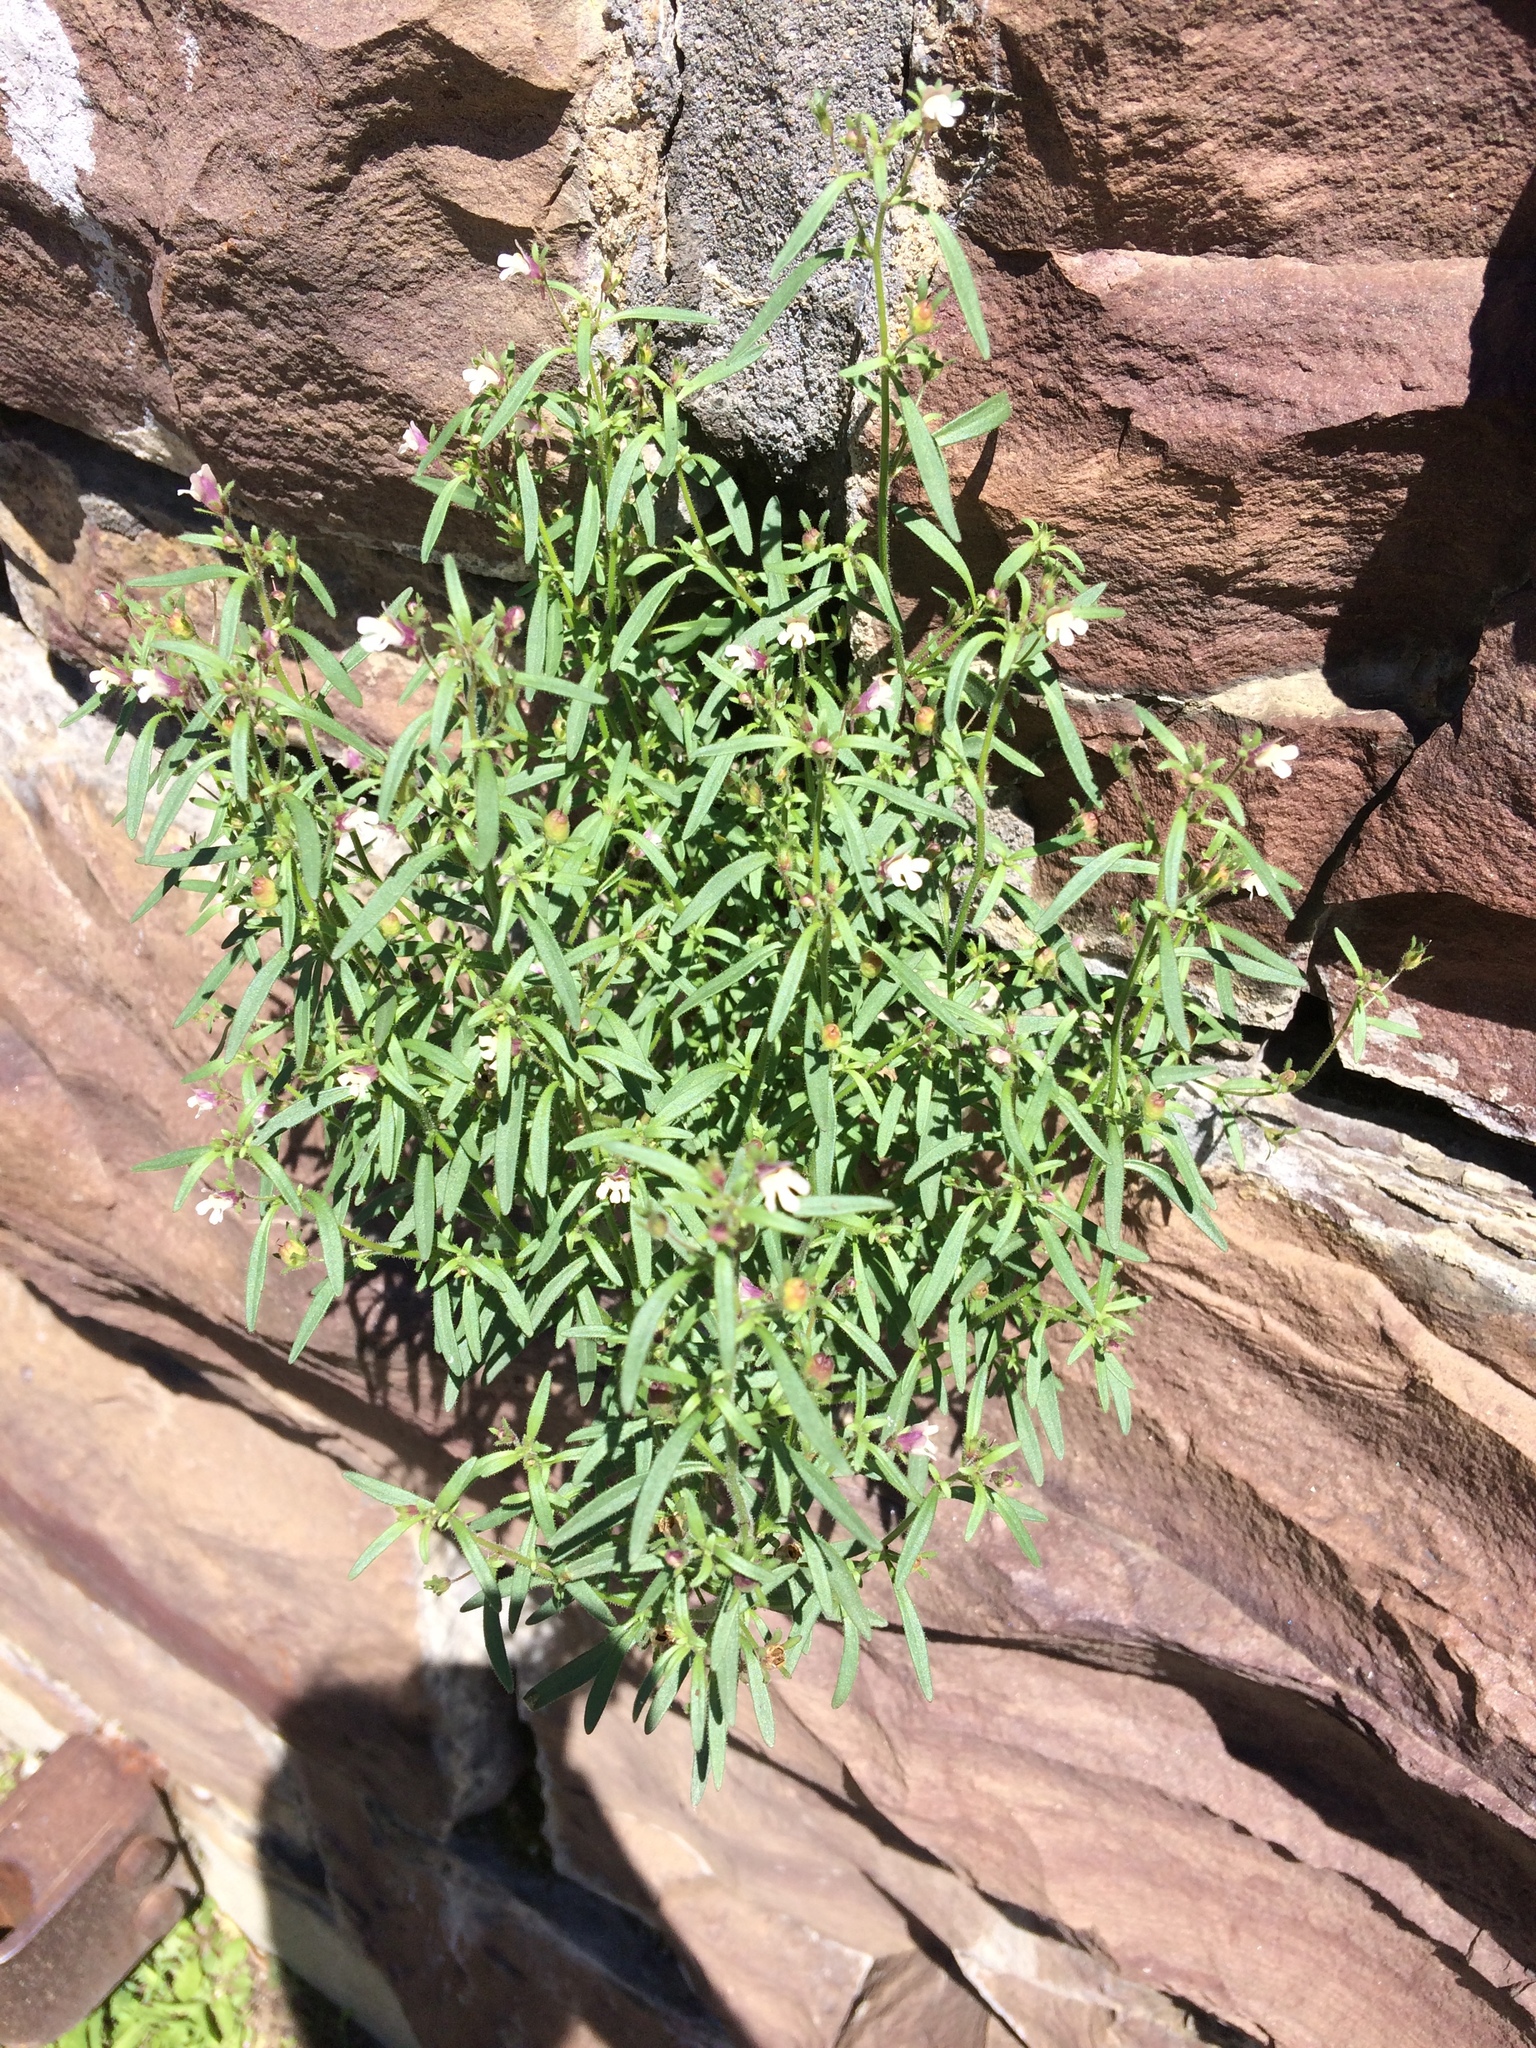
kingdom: Plantae
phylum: Tracheophyta
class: Magnoliopsida
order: Lamiales
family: Plantaginaceae
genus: Chaenorhinum
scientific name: Chaenorhinum minus
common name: Dwarf snapdragon
